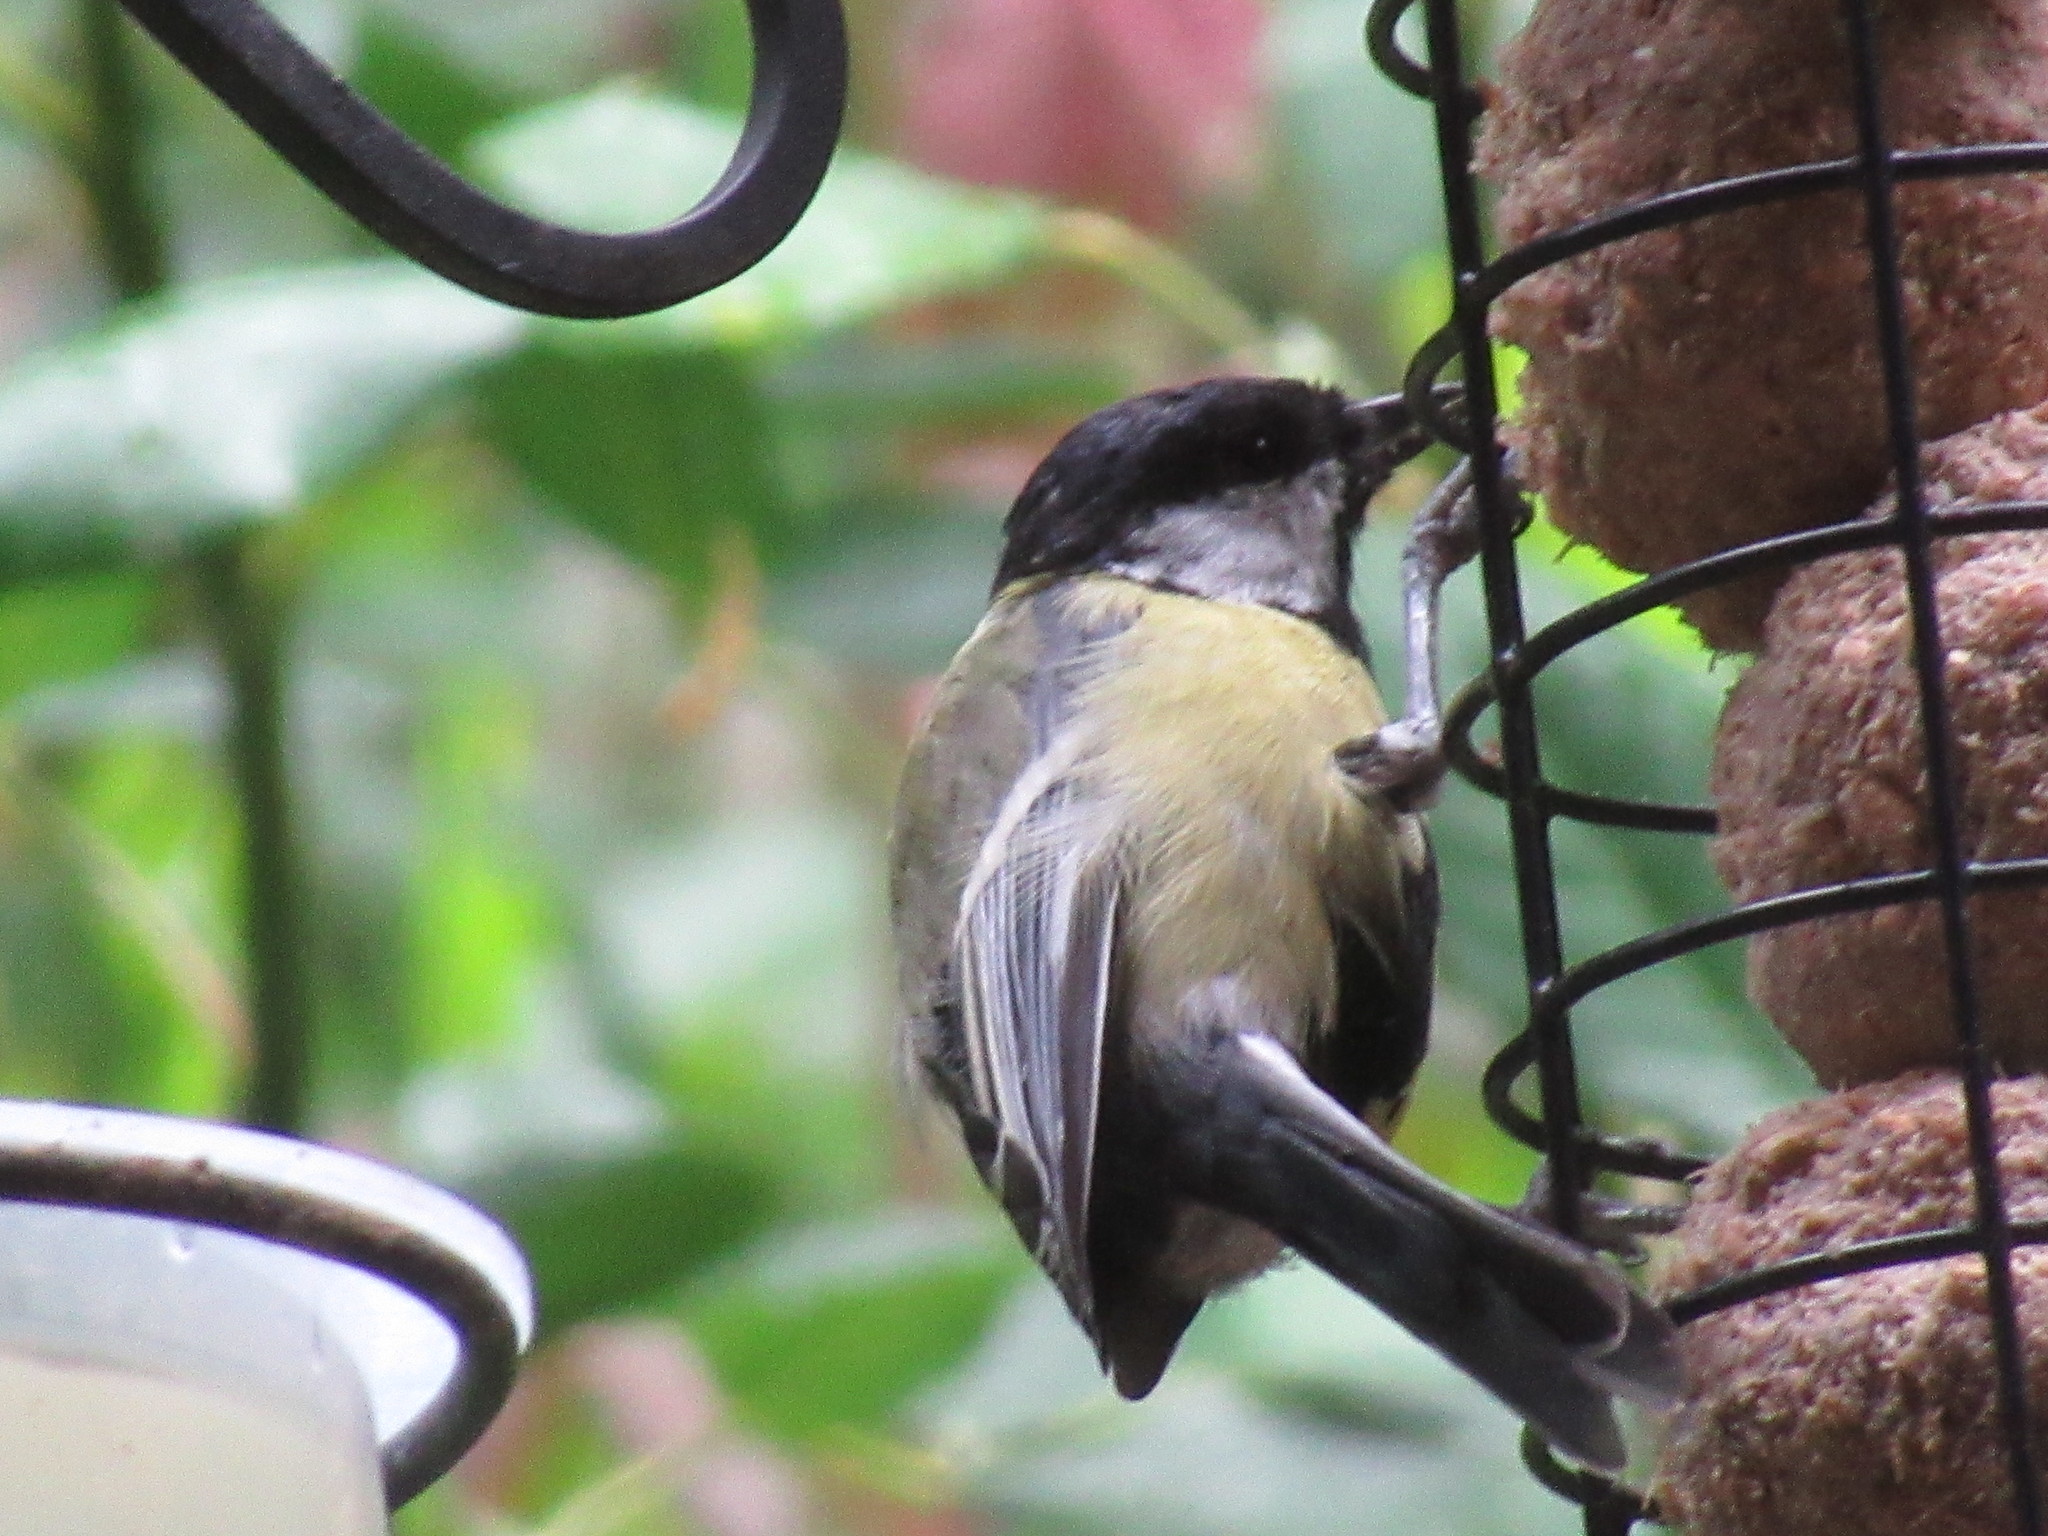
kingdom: Animalia
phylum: Chordata
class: Aves
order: Passeriformes
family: Paridae
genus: Parus
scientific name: Parus major
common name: Great tit
